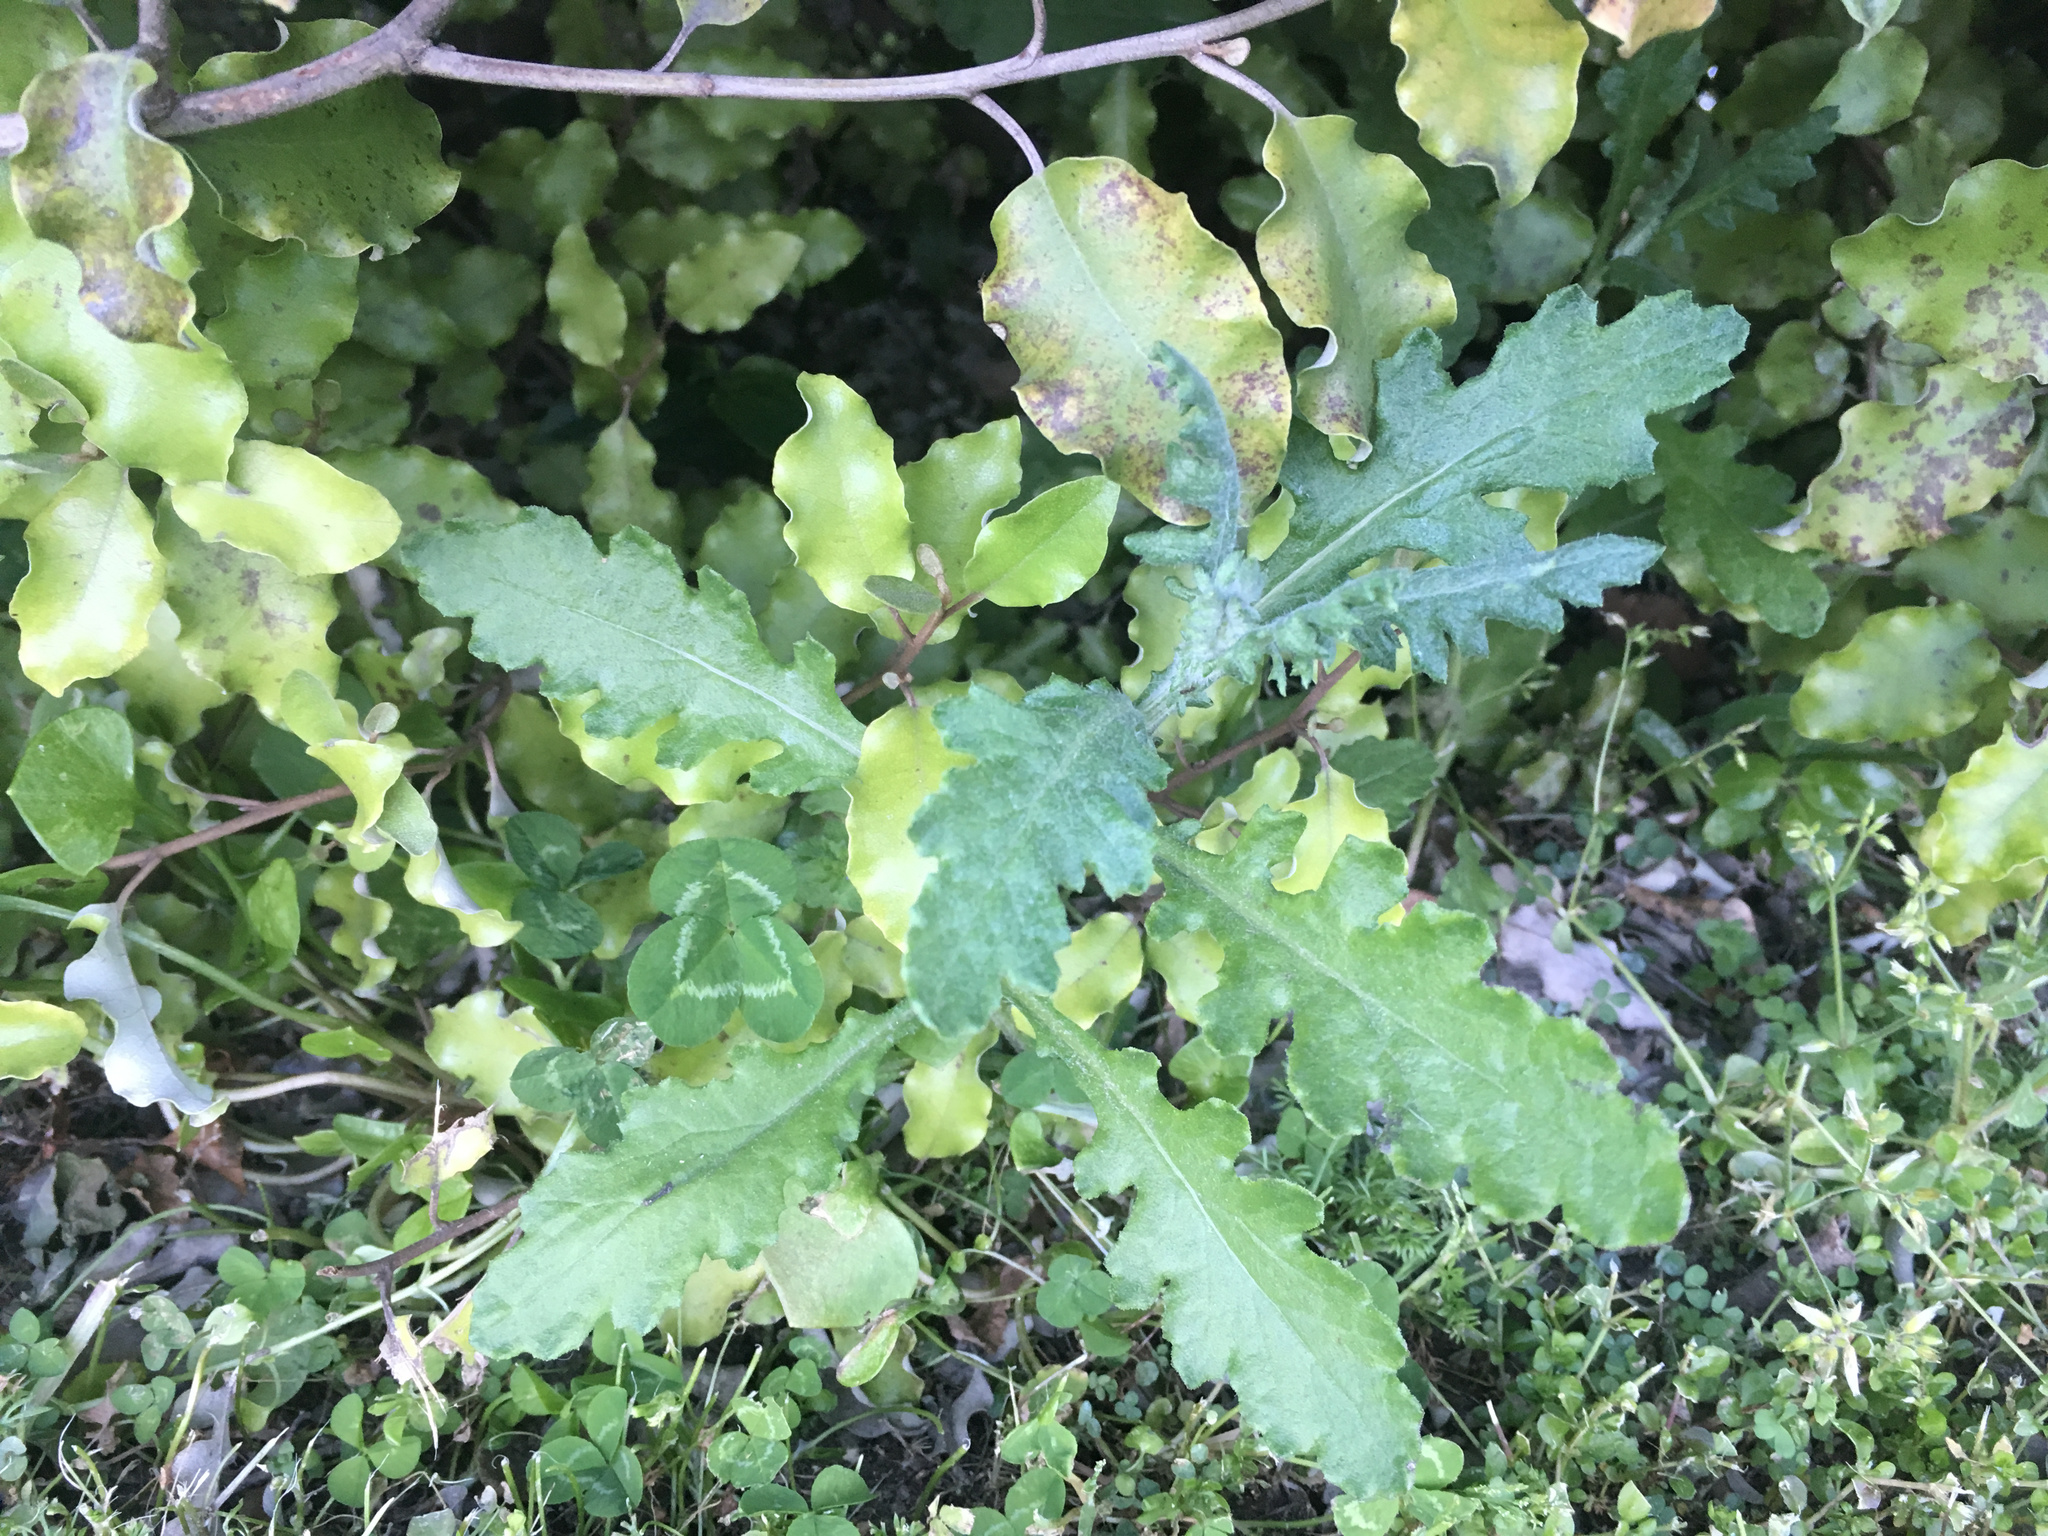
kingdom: Plantae
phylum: Tracheophyta
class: Magnoliopsida
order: Asterales
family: Asteraceae
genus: Senecio
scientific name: Senecio glomeratus
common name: Cutleaf burnweed
